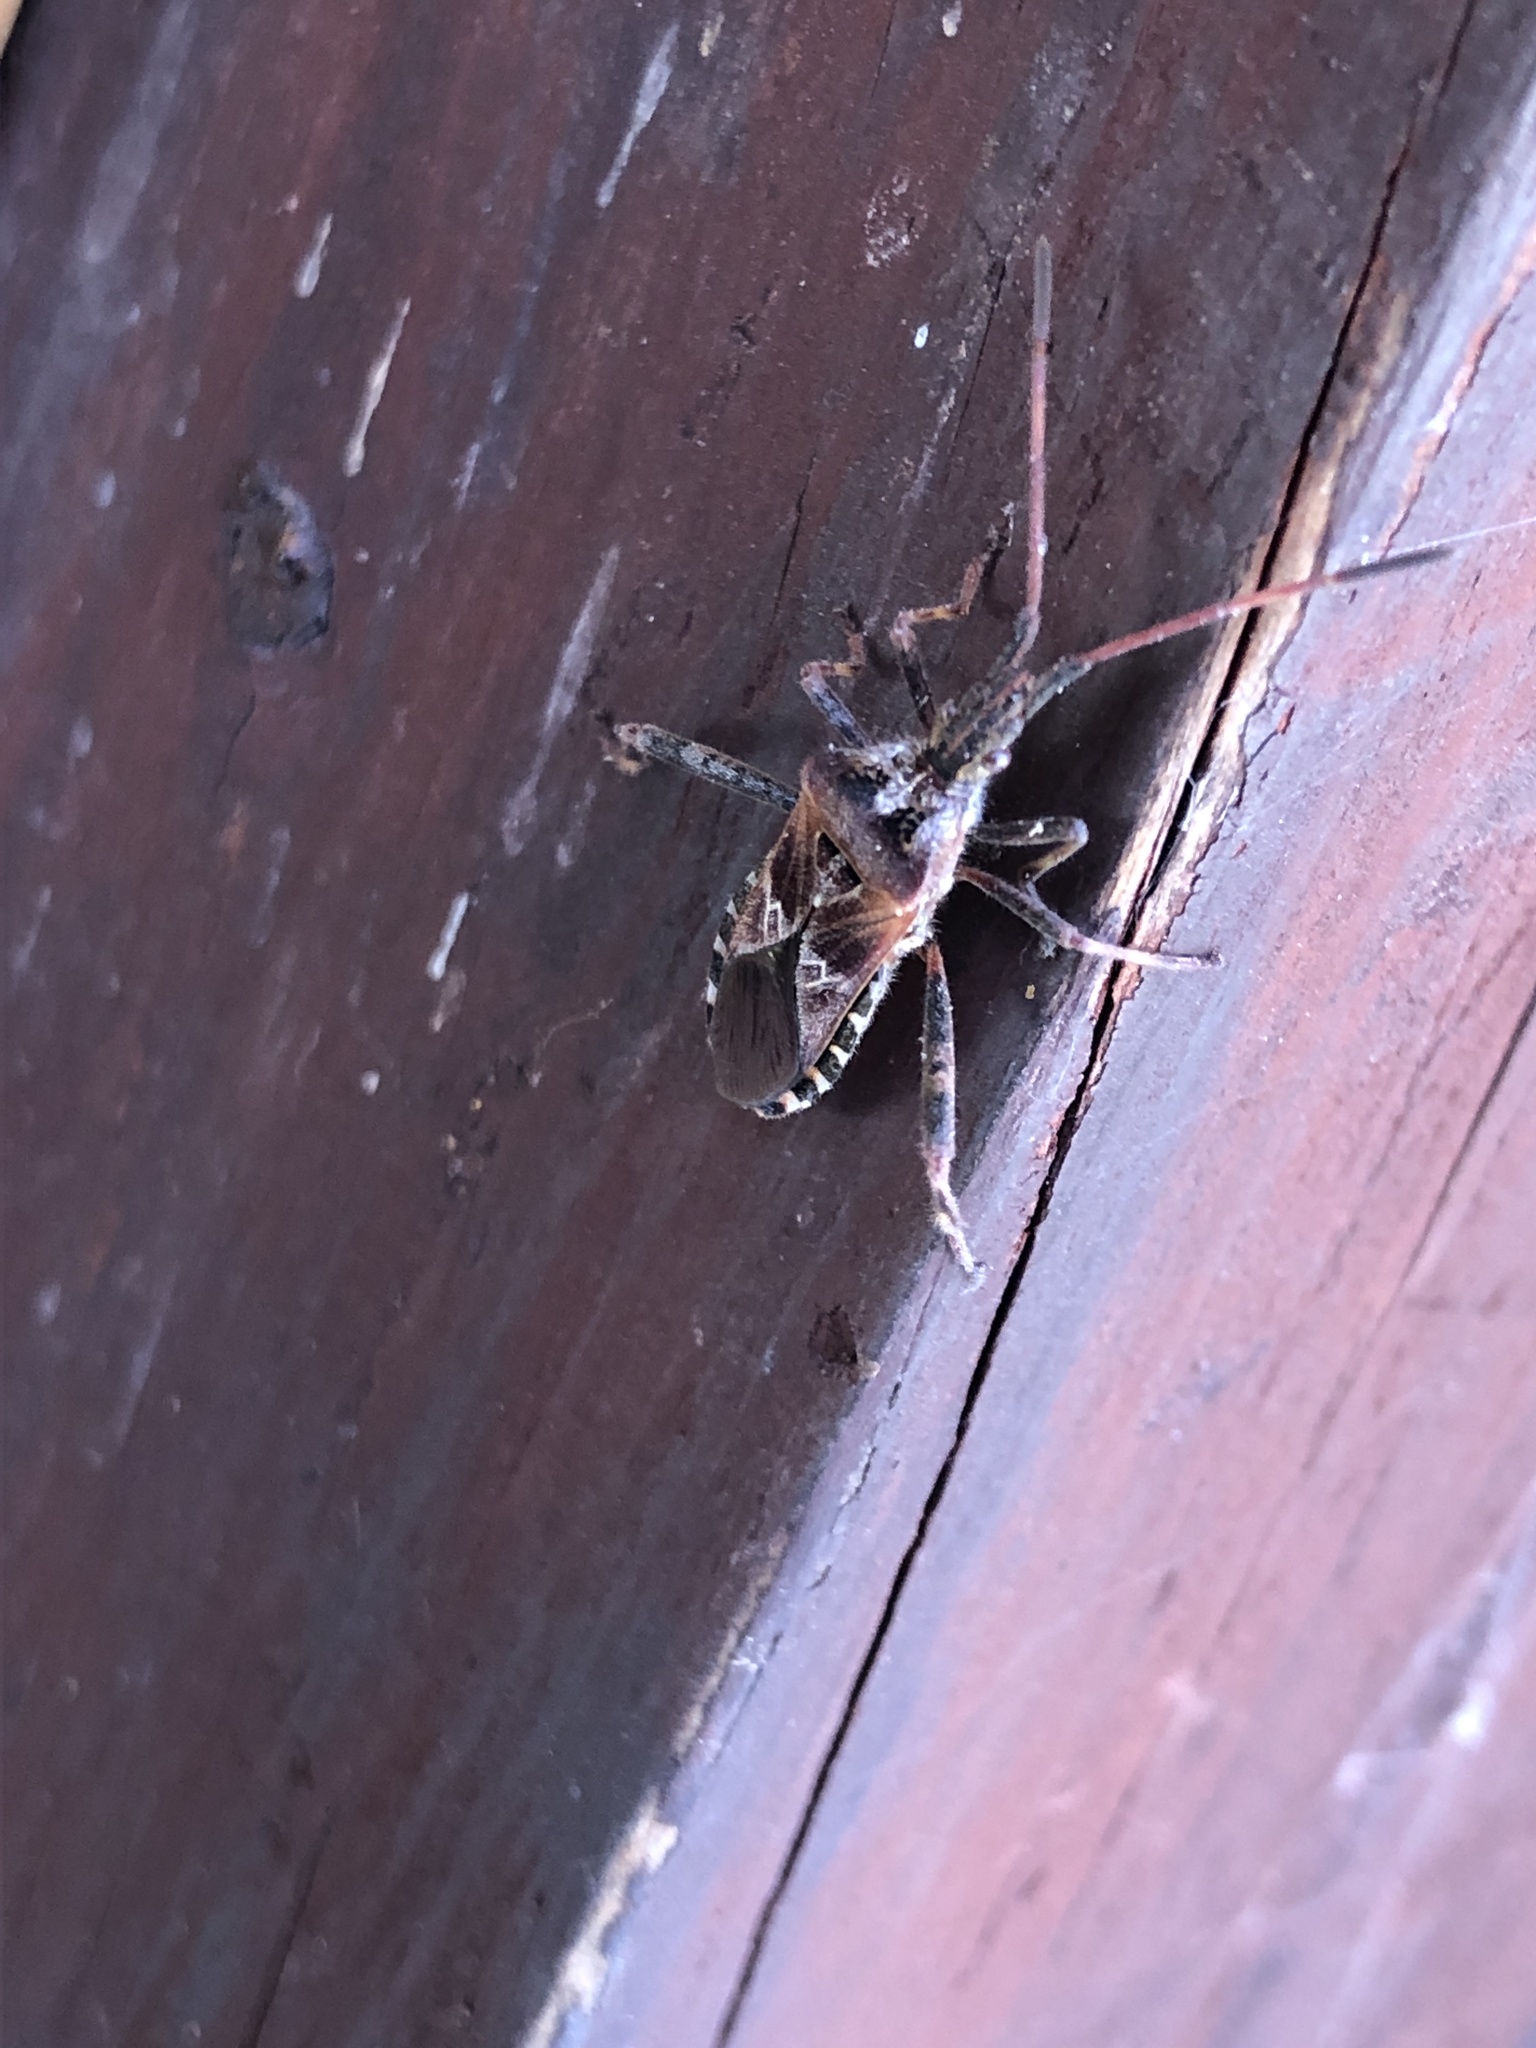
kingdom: Animalia
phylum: Arthropoda
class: Insecta
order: Hemiptera
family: Coreidae
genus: Leptoglossus
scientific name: Leptoglossus occidentalis
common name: Western conifer-seed bug
